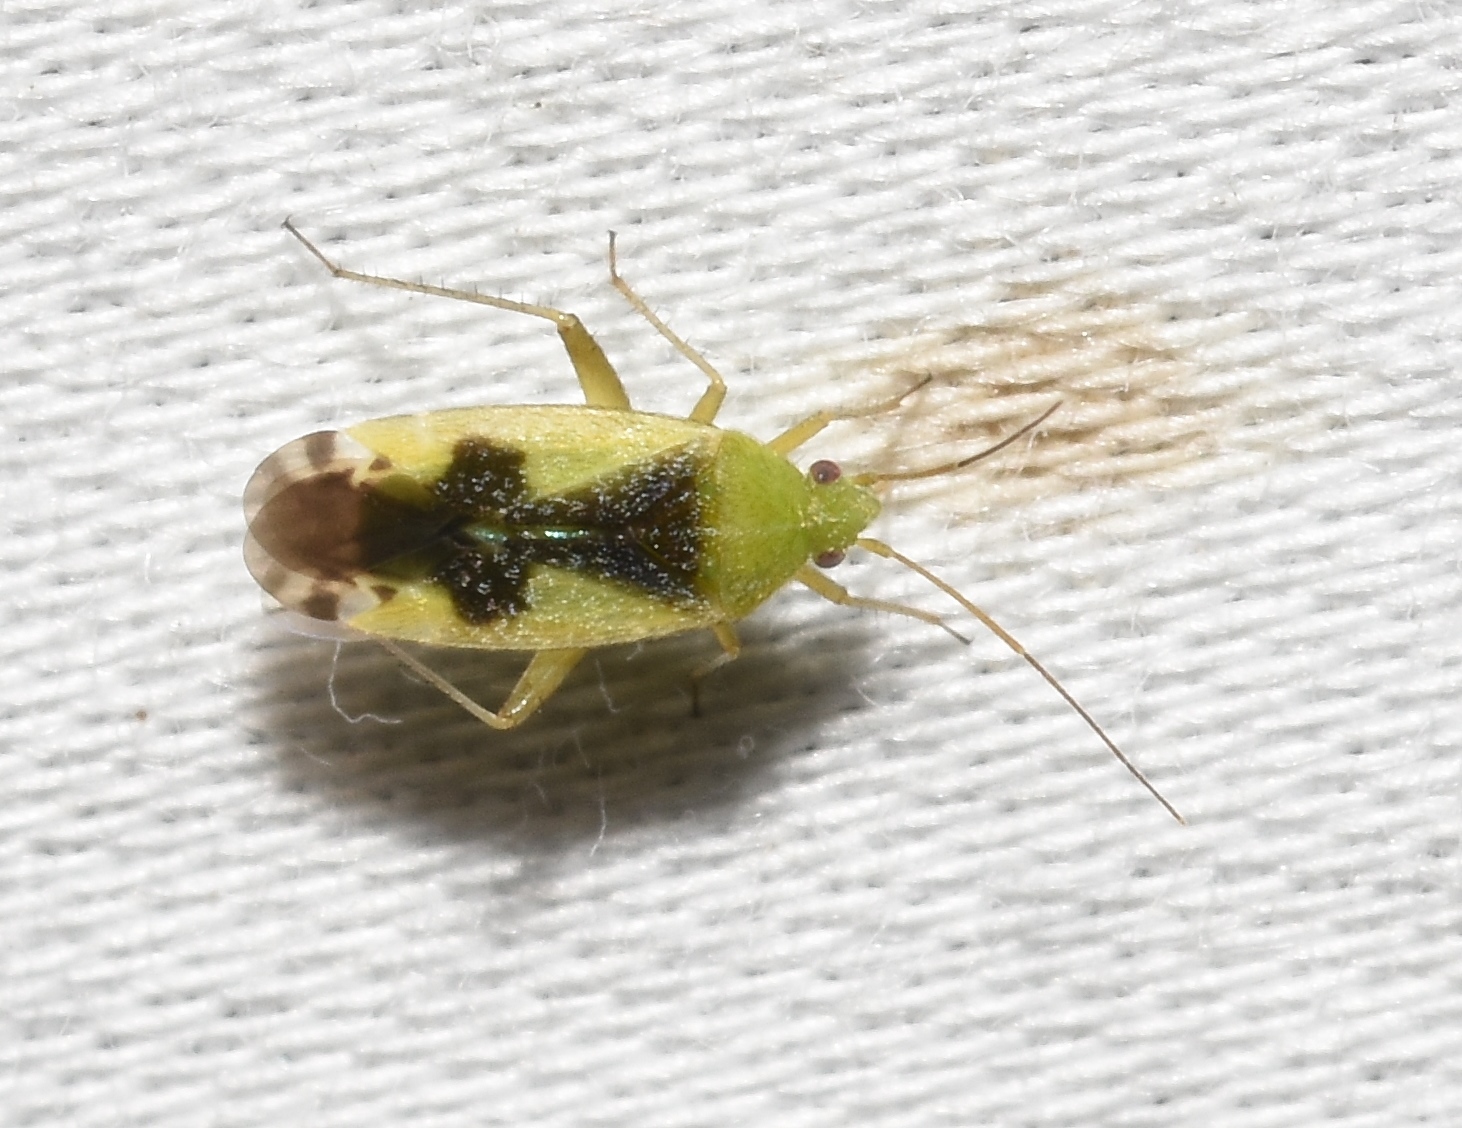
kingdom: Animalia
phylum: Arthropoda
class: Insecta
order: Hemiptera
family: Miridae
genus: Reuteroscopus
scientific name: Reuteroscopus ornatus
